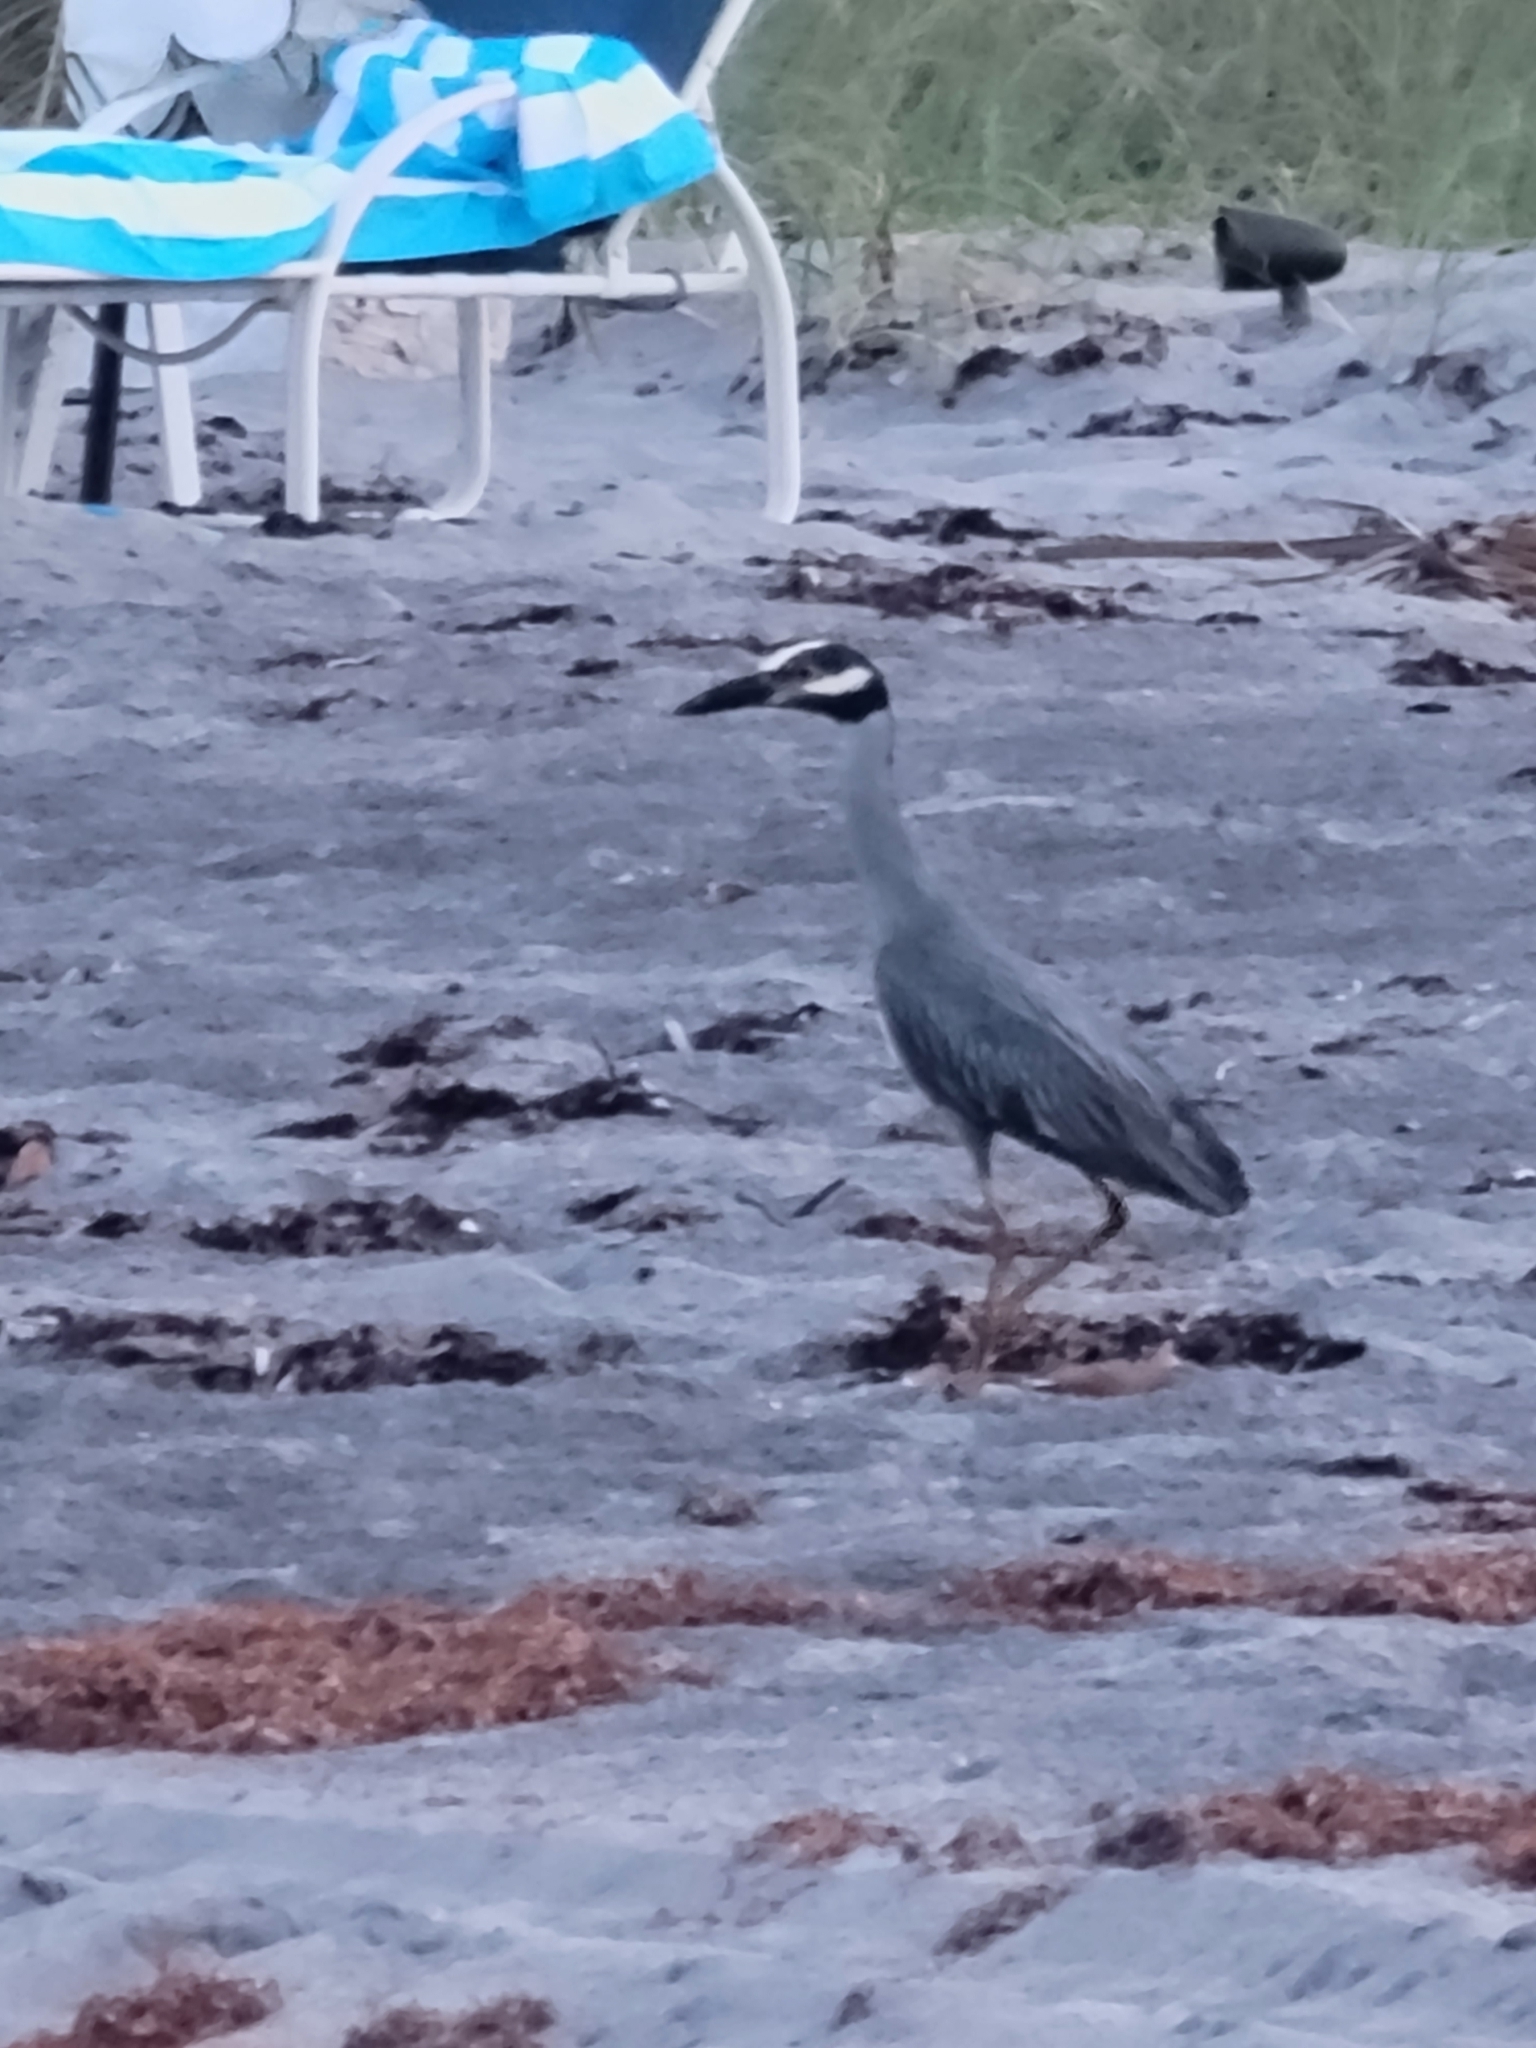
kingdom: Animalia
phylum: Chordata
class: Aves
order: Pelecaniformes
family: Ardeidae
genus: Nyctanassa
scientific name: Nyctanassa violacea
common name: Yellow-crowned night heron
